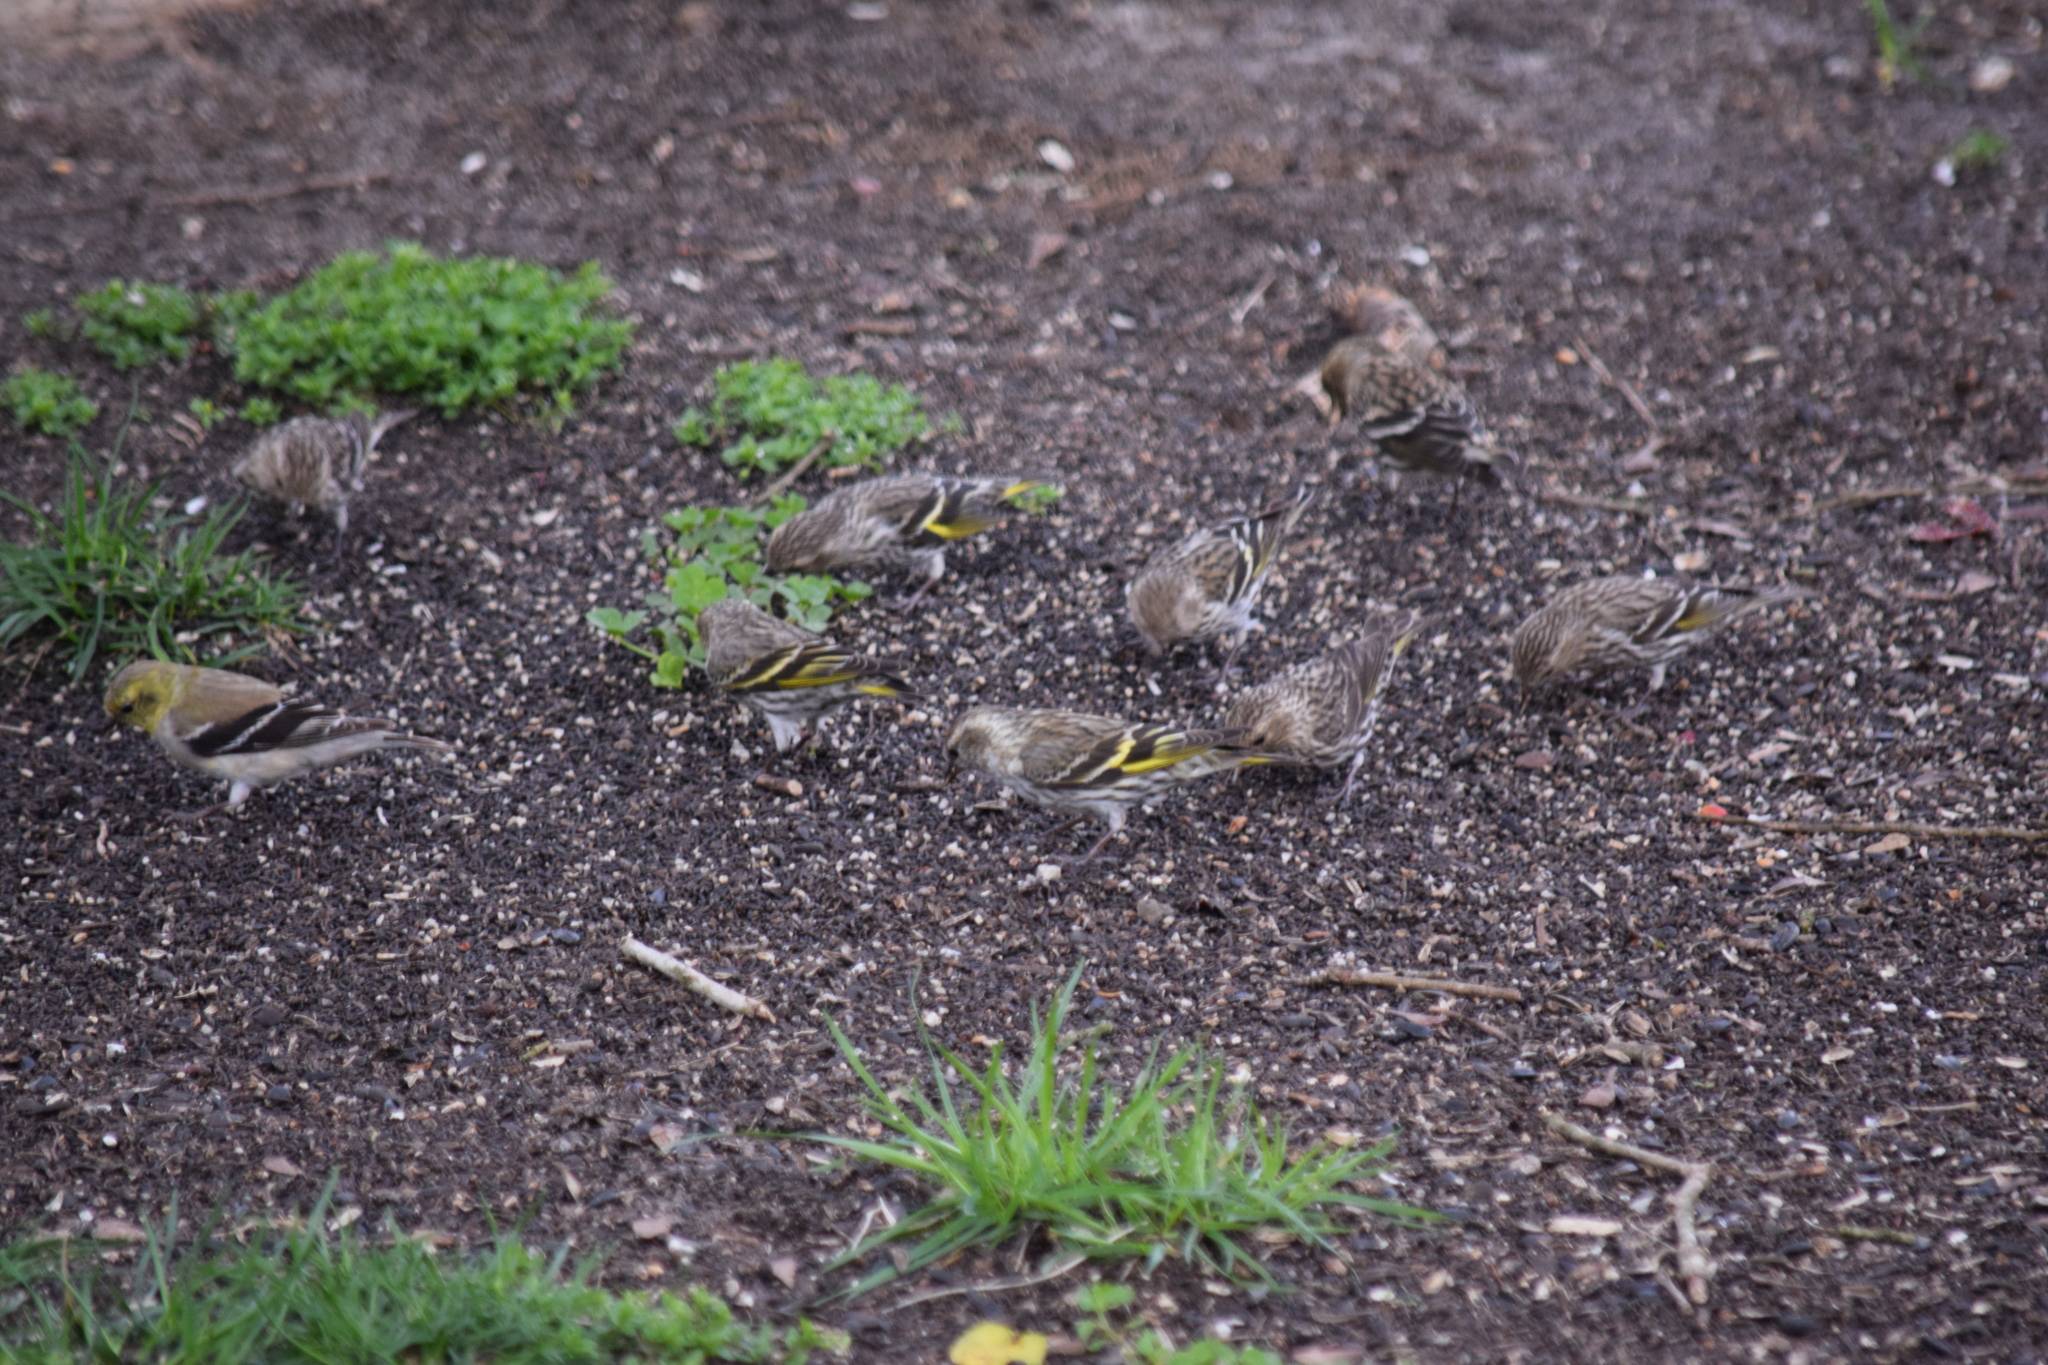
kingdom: Animalia
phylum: Chordata
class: Aves
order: Passeriformes
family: Fringillidae
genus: Spinus
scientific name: Spinus pinus
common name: Pine siskin
